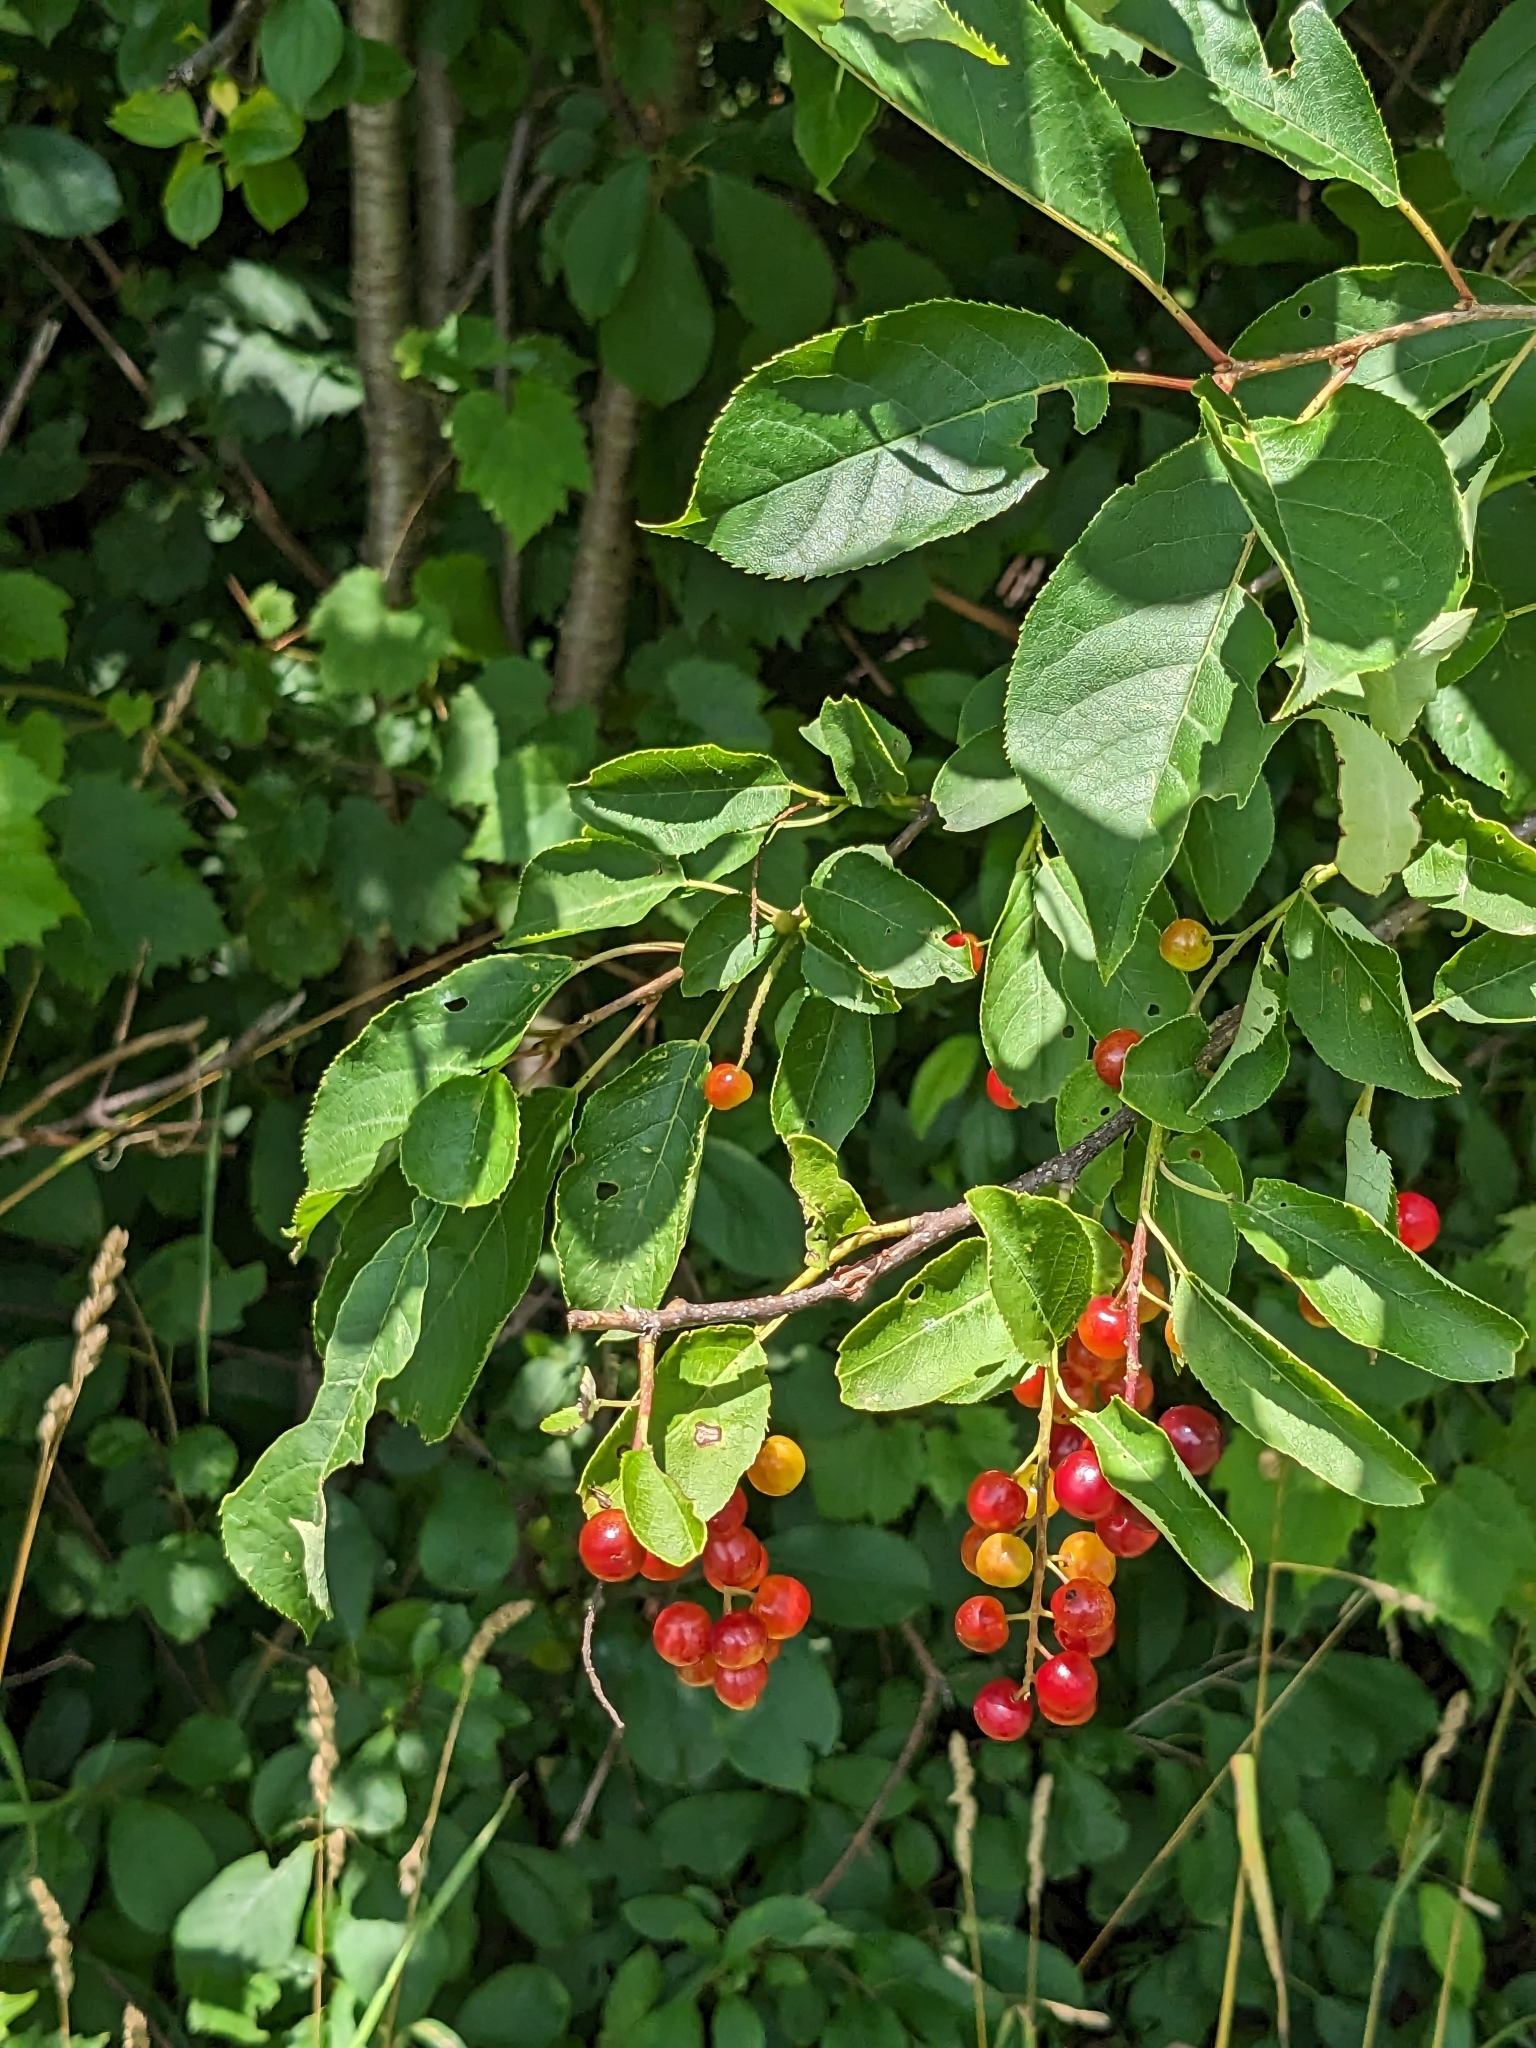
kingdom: Plantae
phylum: Tracheophyta
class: Magnoliopsida
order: Rosales
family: Rosaceae
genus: Prunus
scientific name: Prunus virginiana
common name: Chokecherry
